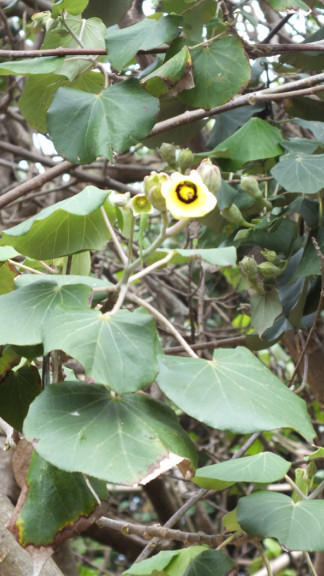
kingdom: Plantae
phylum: Tracheophyta
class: Magnoliopsida
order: Malvales
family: Malvaceae
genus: Talipariti
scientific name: Talipariti tiliaceum
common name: Sea hibiscus
